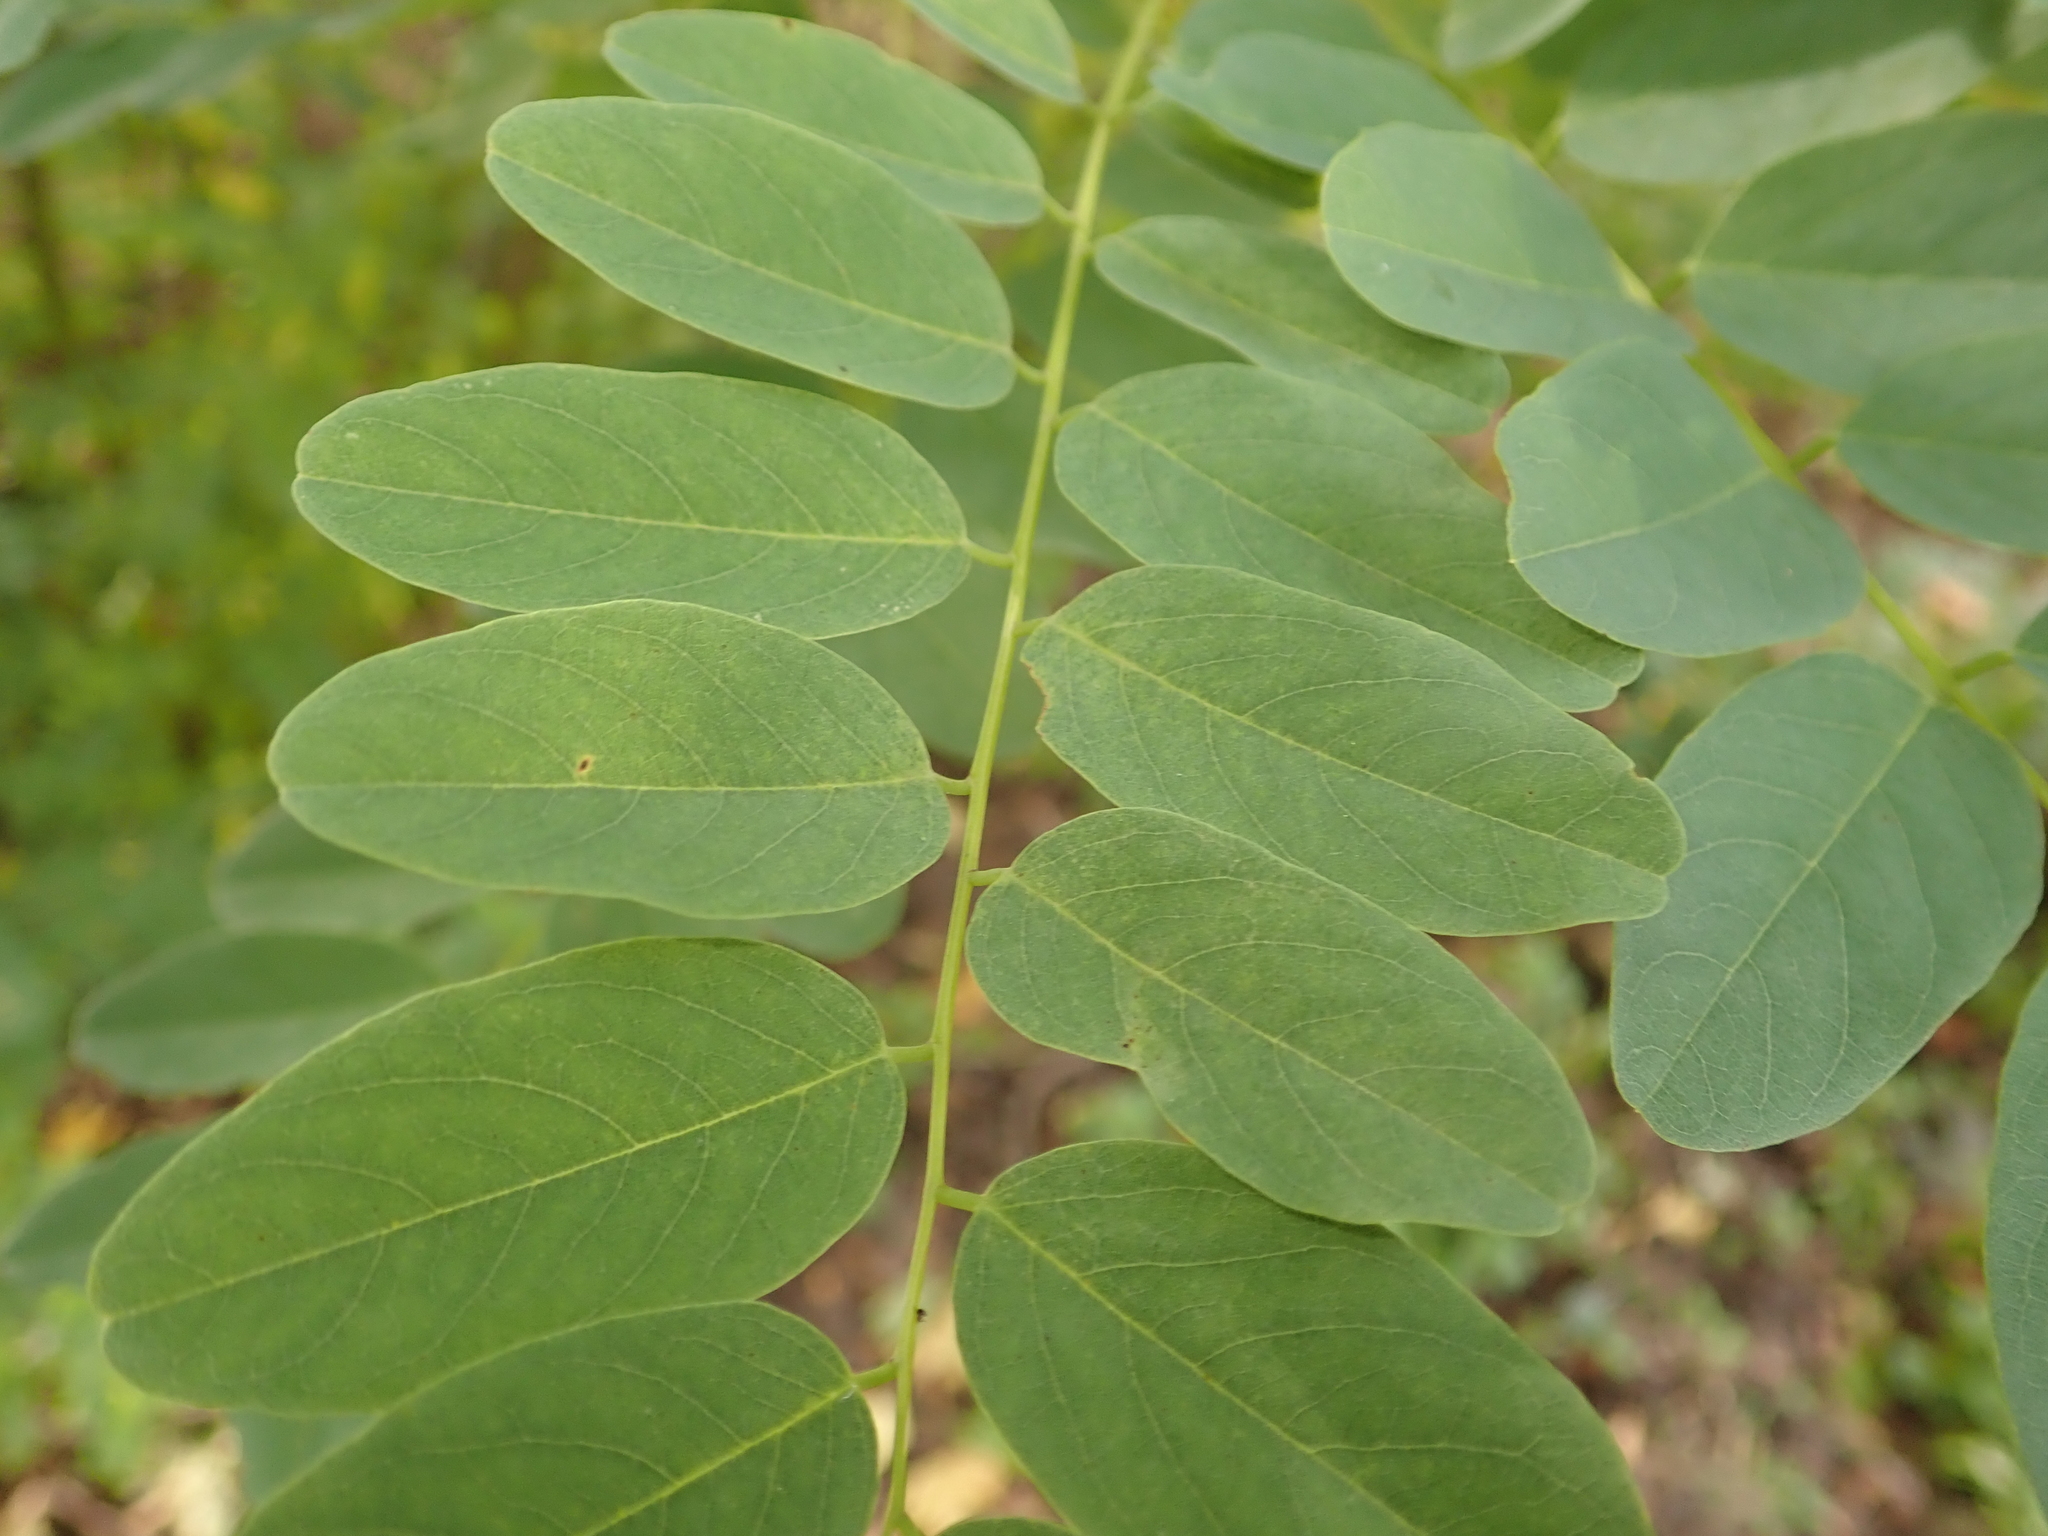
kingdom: Plantae
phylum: Tracheophyta
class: Magnoliopsida
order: Fabales
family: Fabaceae
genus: Robinia
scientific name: Robinia pseudoacacia
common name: Black locust
